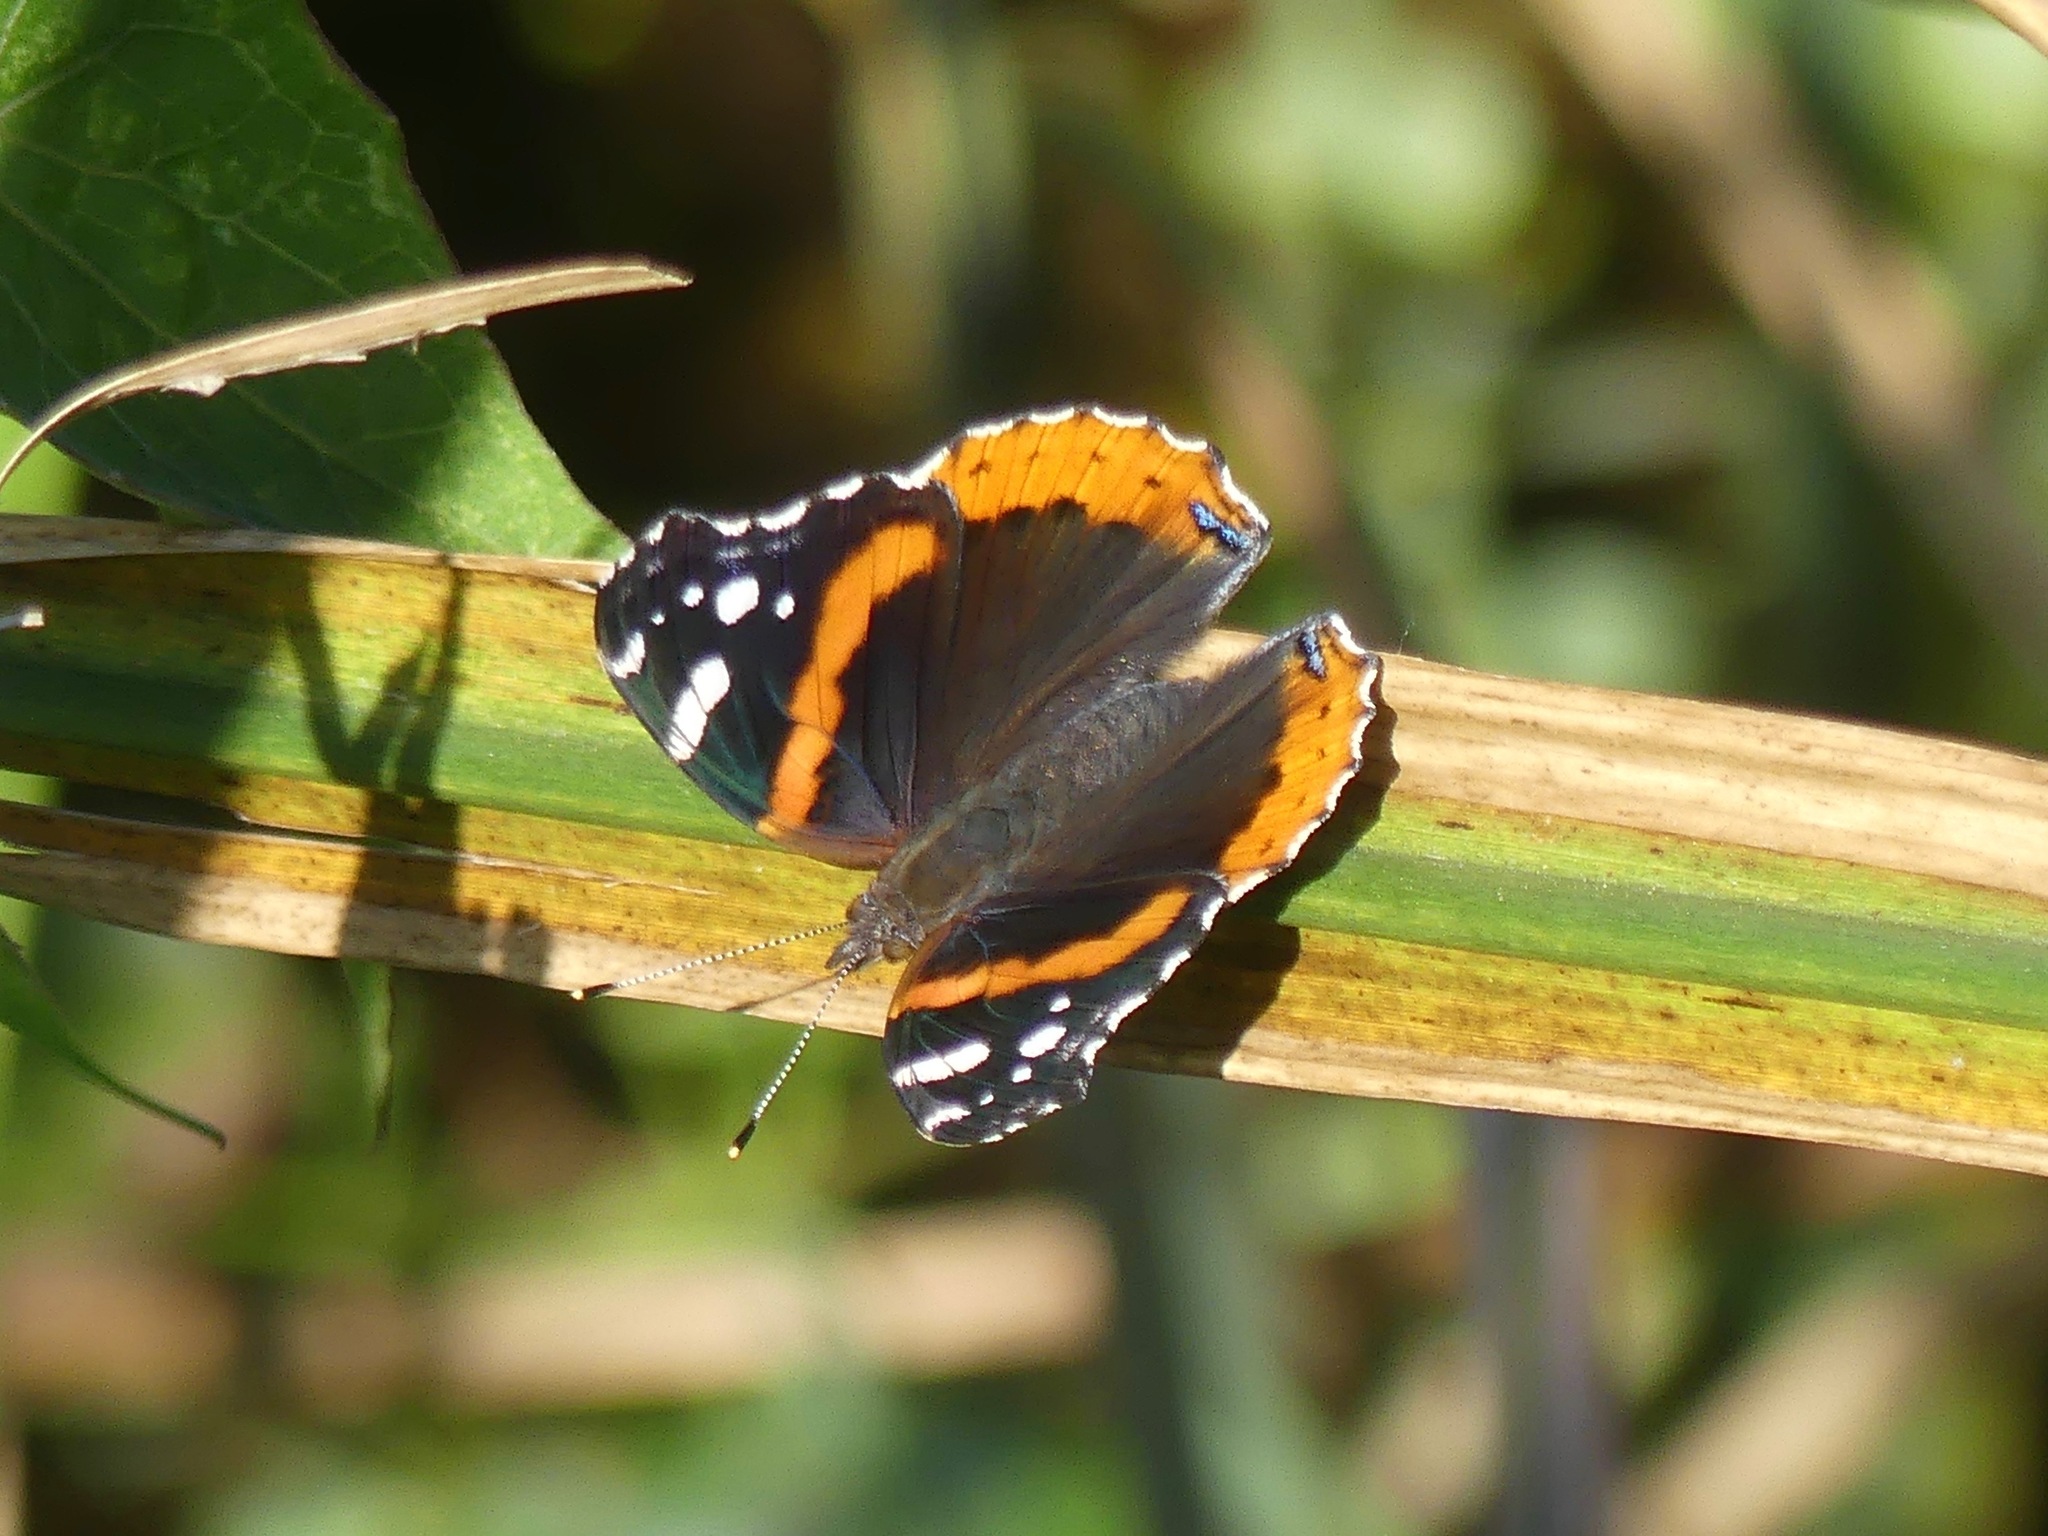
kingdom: Animalia
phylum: Arthropoda
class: Insecta
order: Lepidoptera
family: Nymphalidae
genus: Vanessa
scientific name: Vanessa atalanta
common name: Red admiral
